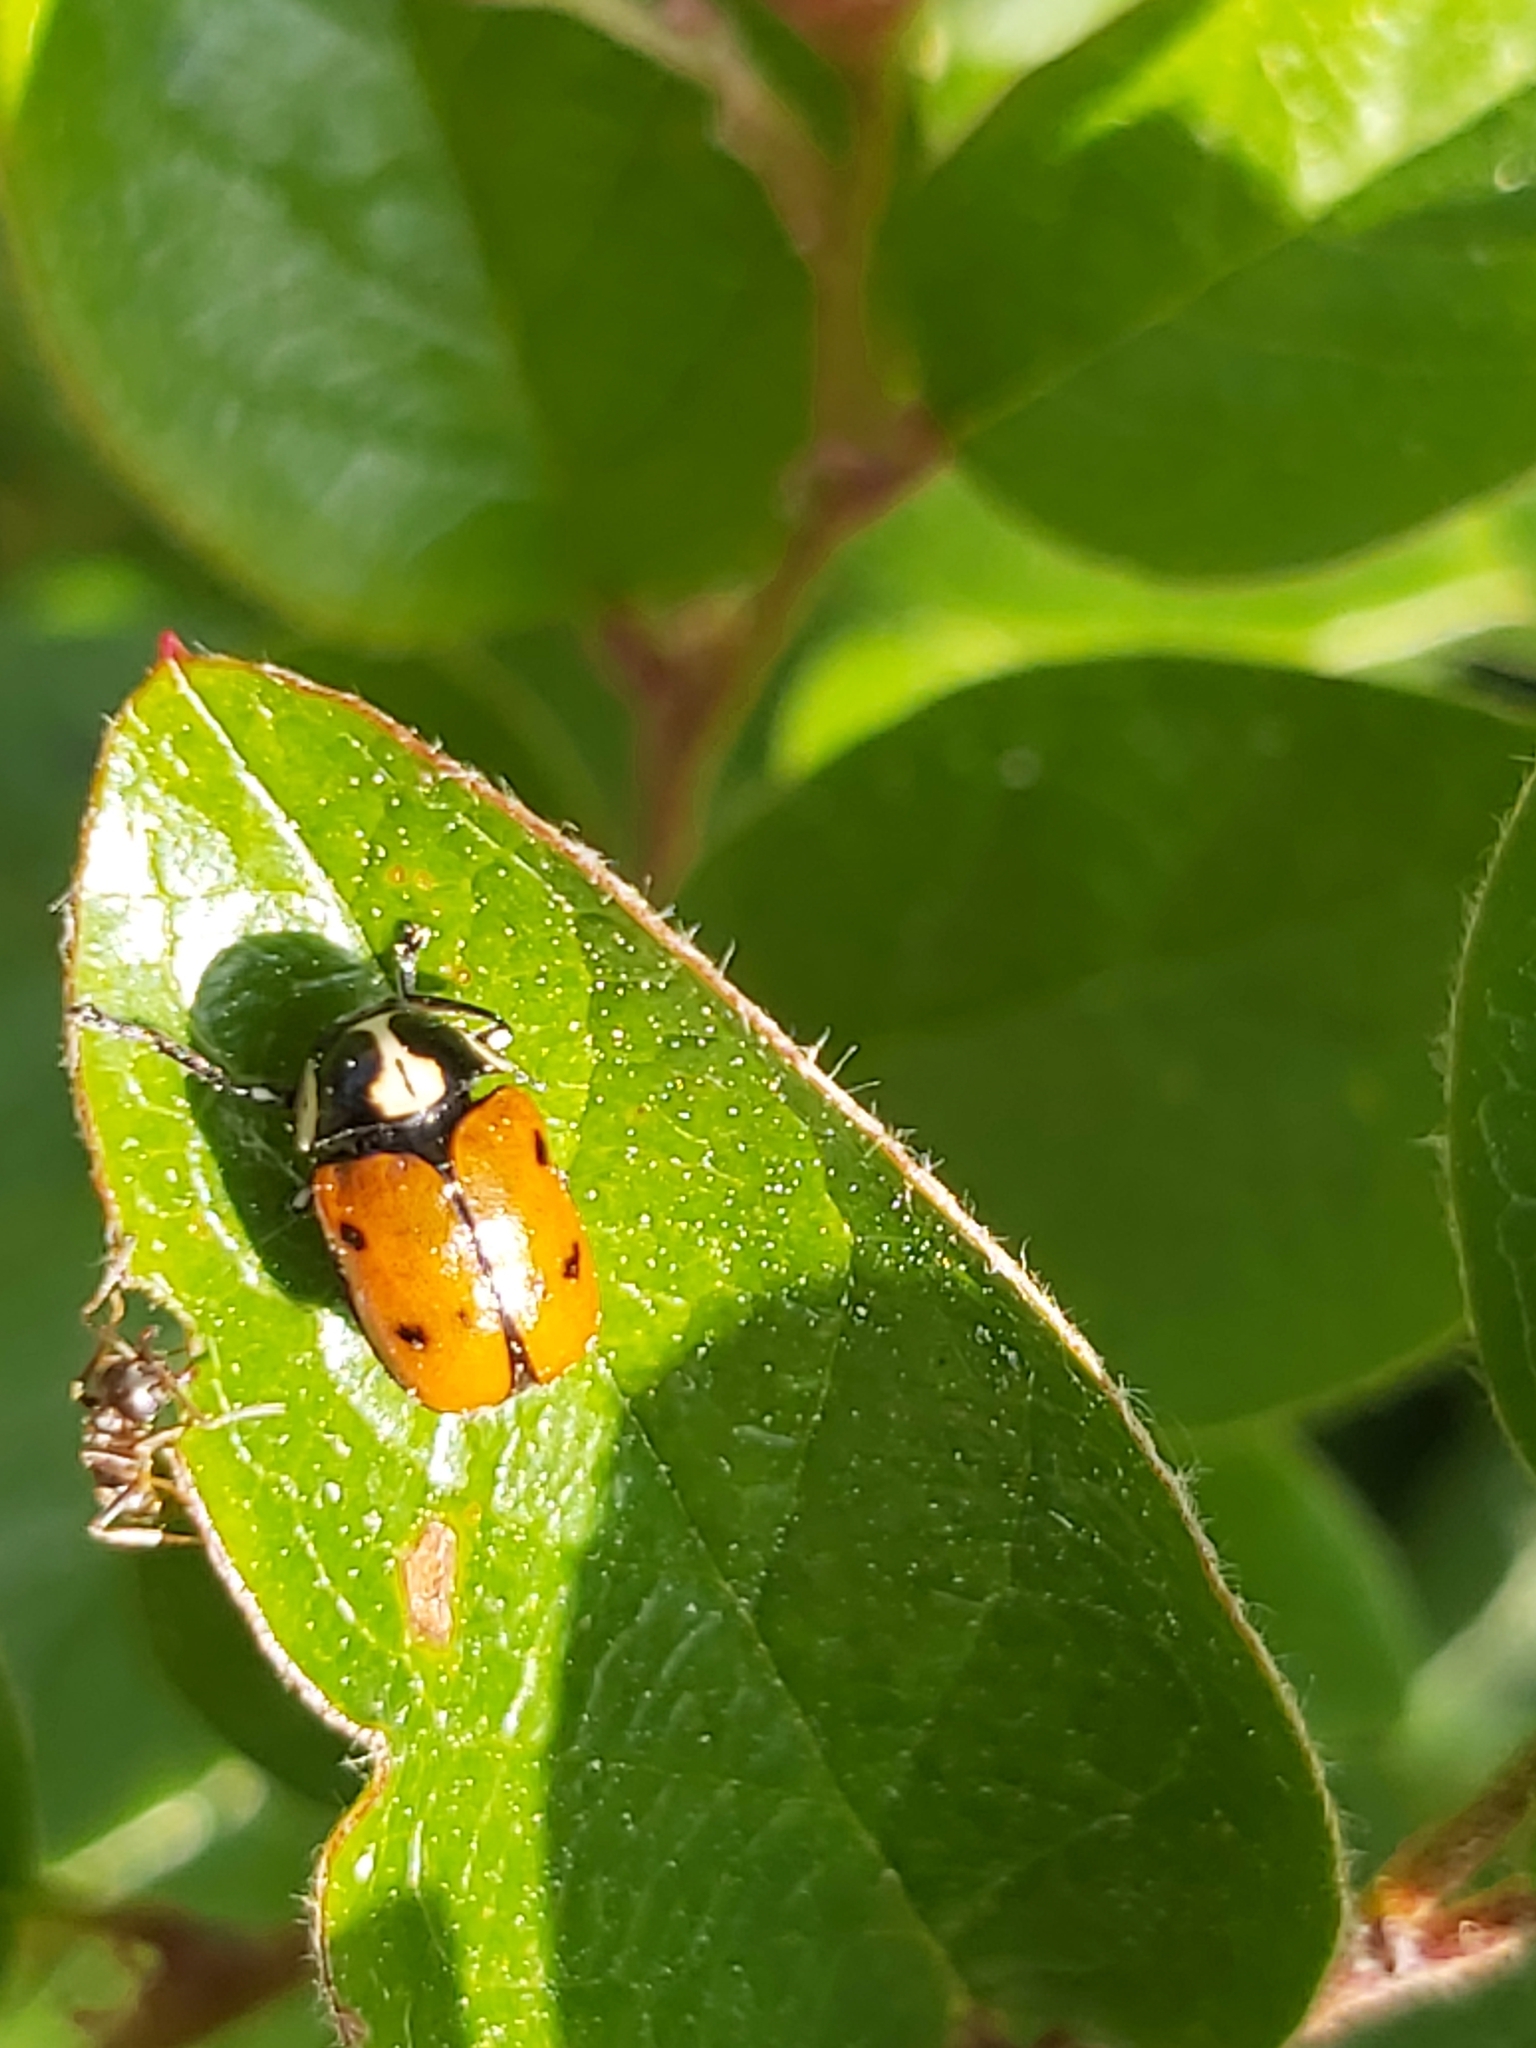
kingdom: Animalia
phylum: Arthropoda
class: Insecta
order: Coleoptera
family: Chrysomelidae
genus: Cryptocephalus
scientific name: Cryptocephalus octopunctatus
